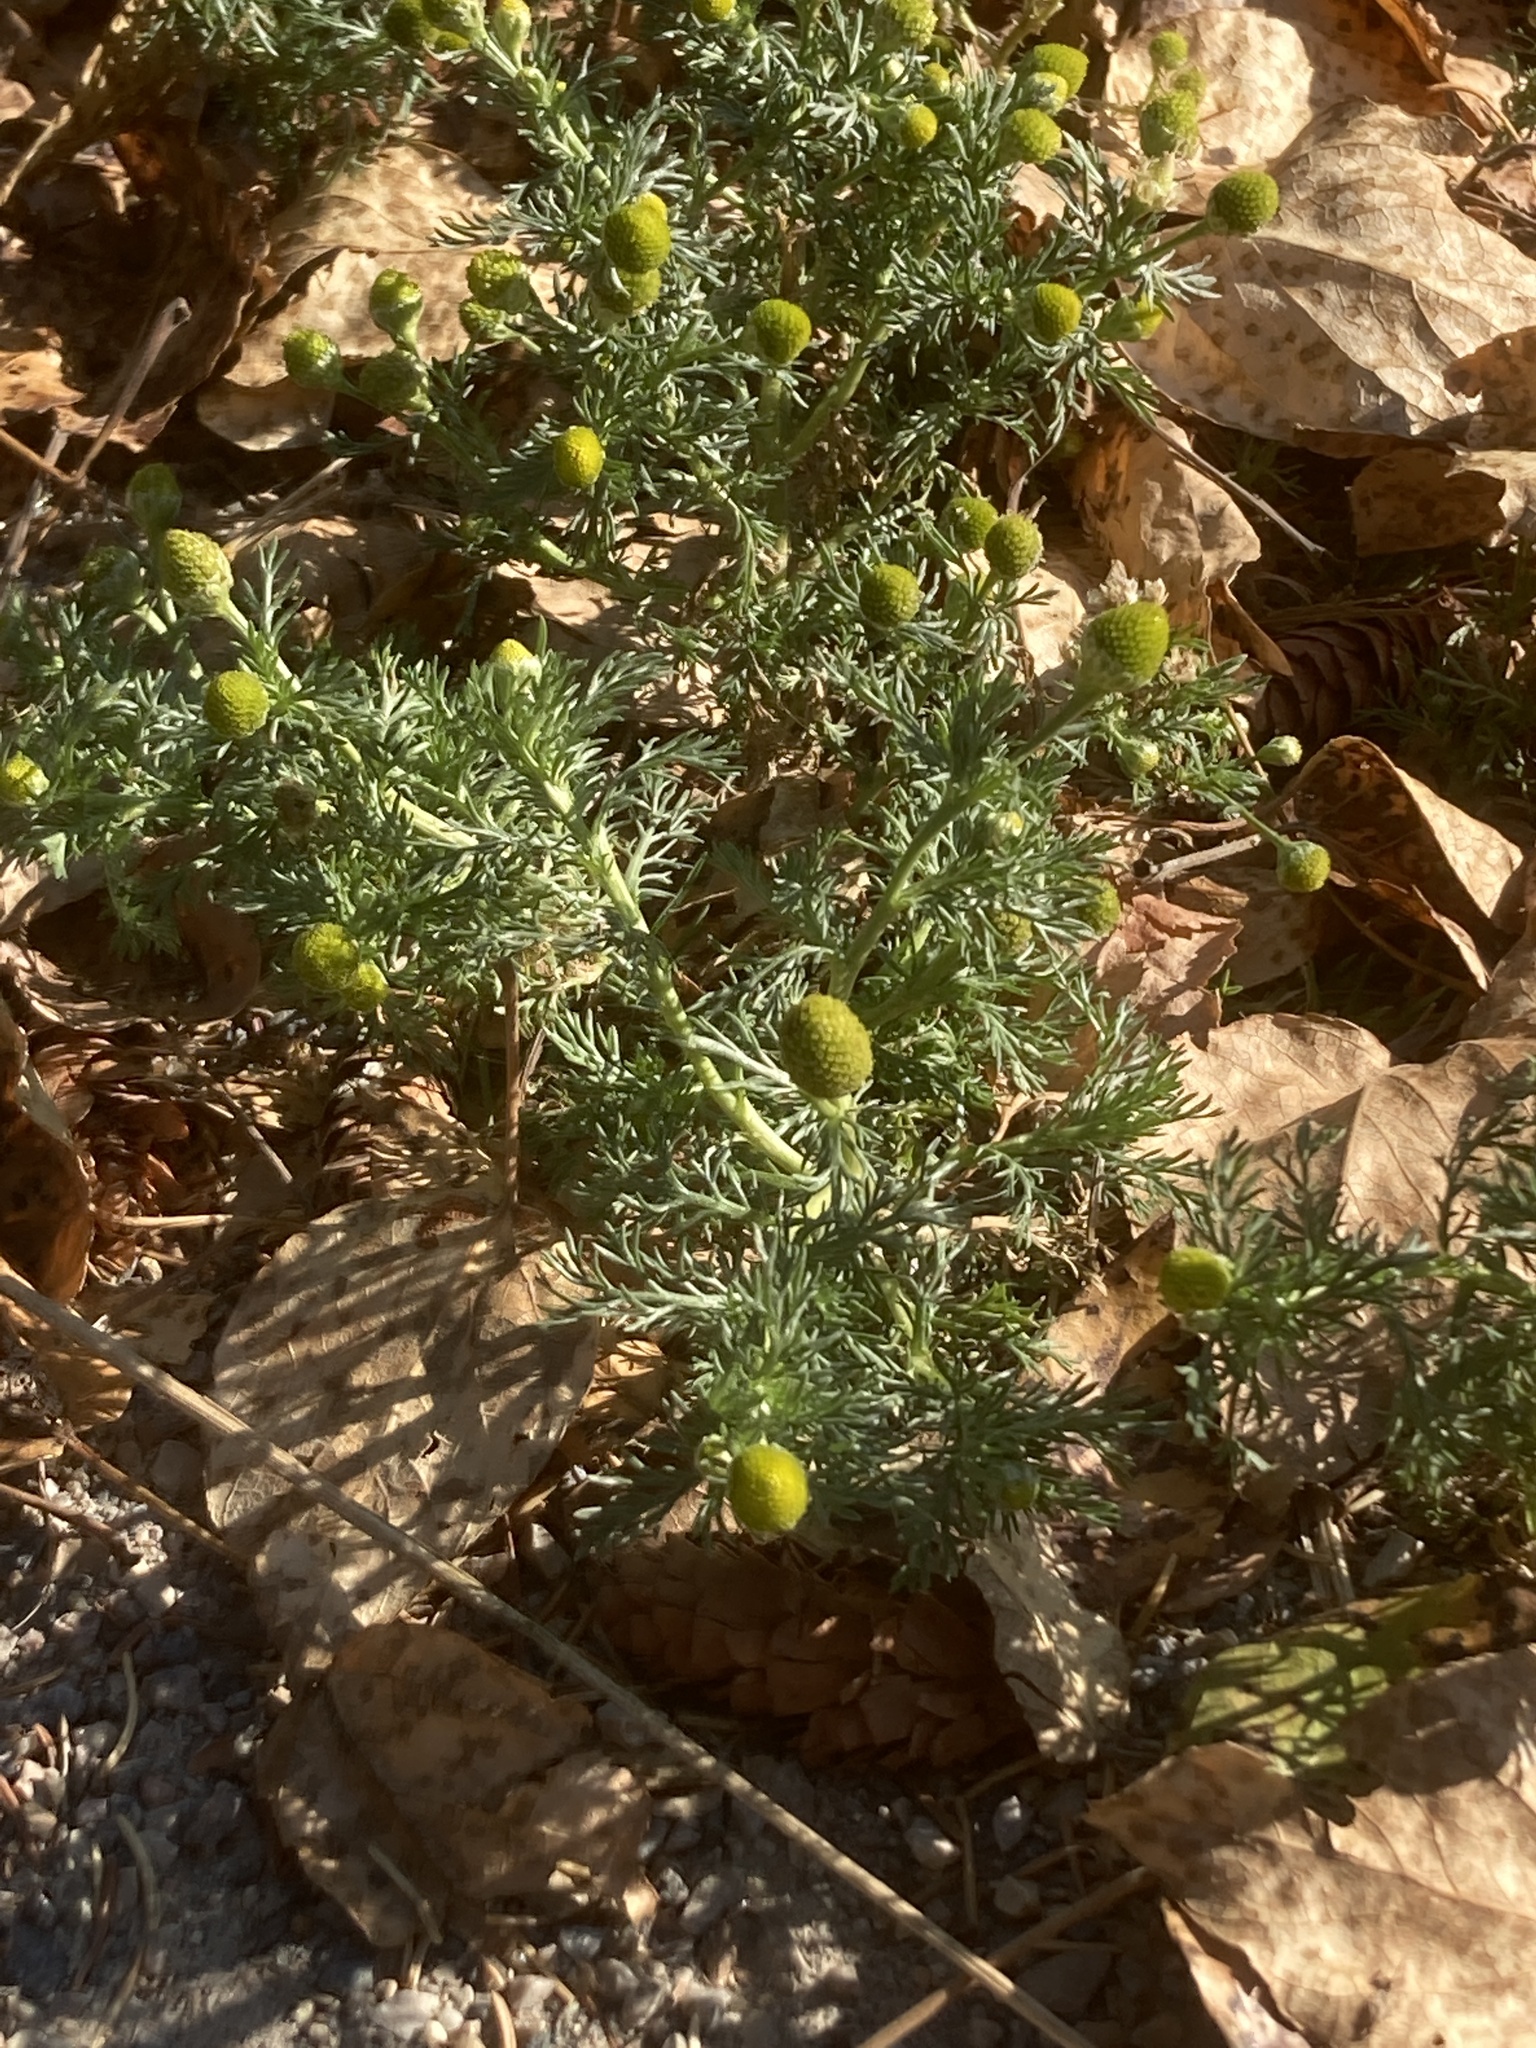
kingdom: Plantae
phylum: Tracheophyta
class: Magnoliopsida
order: Asterales
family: Asteraceae
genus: Matricaria
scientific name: Matricaria discoidea
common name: Disc mayweed
